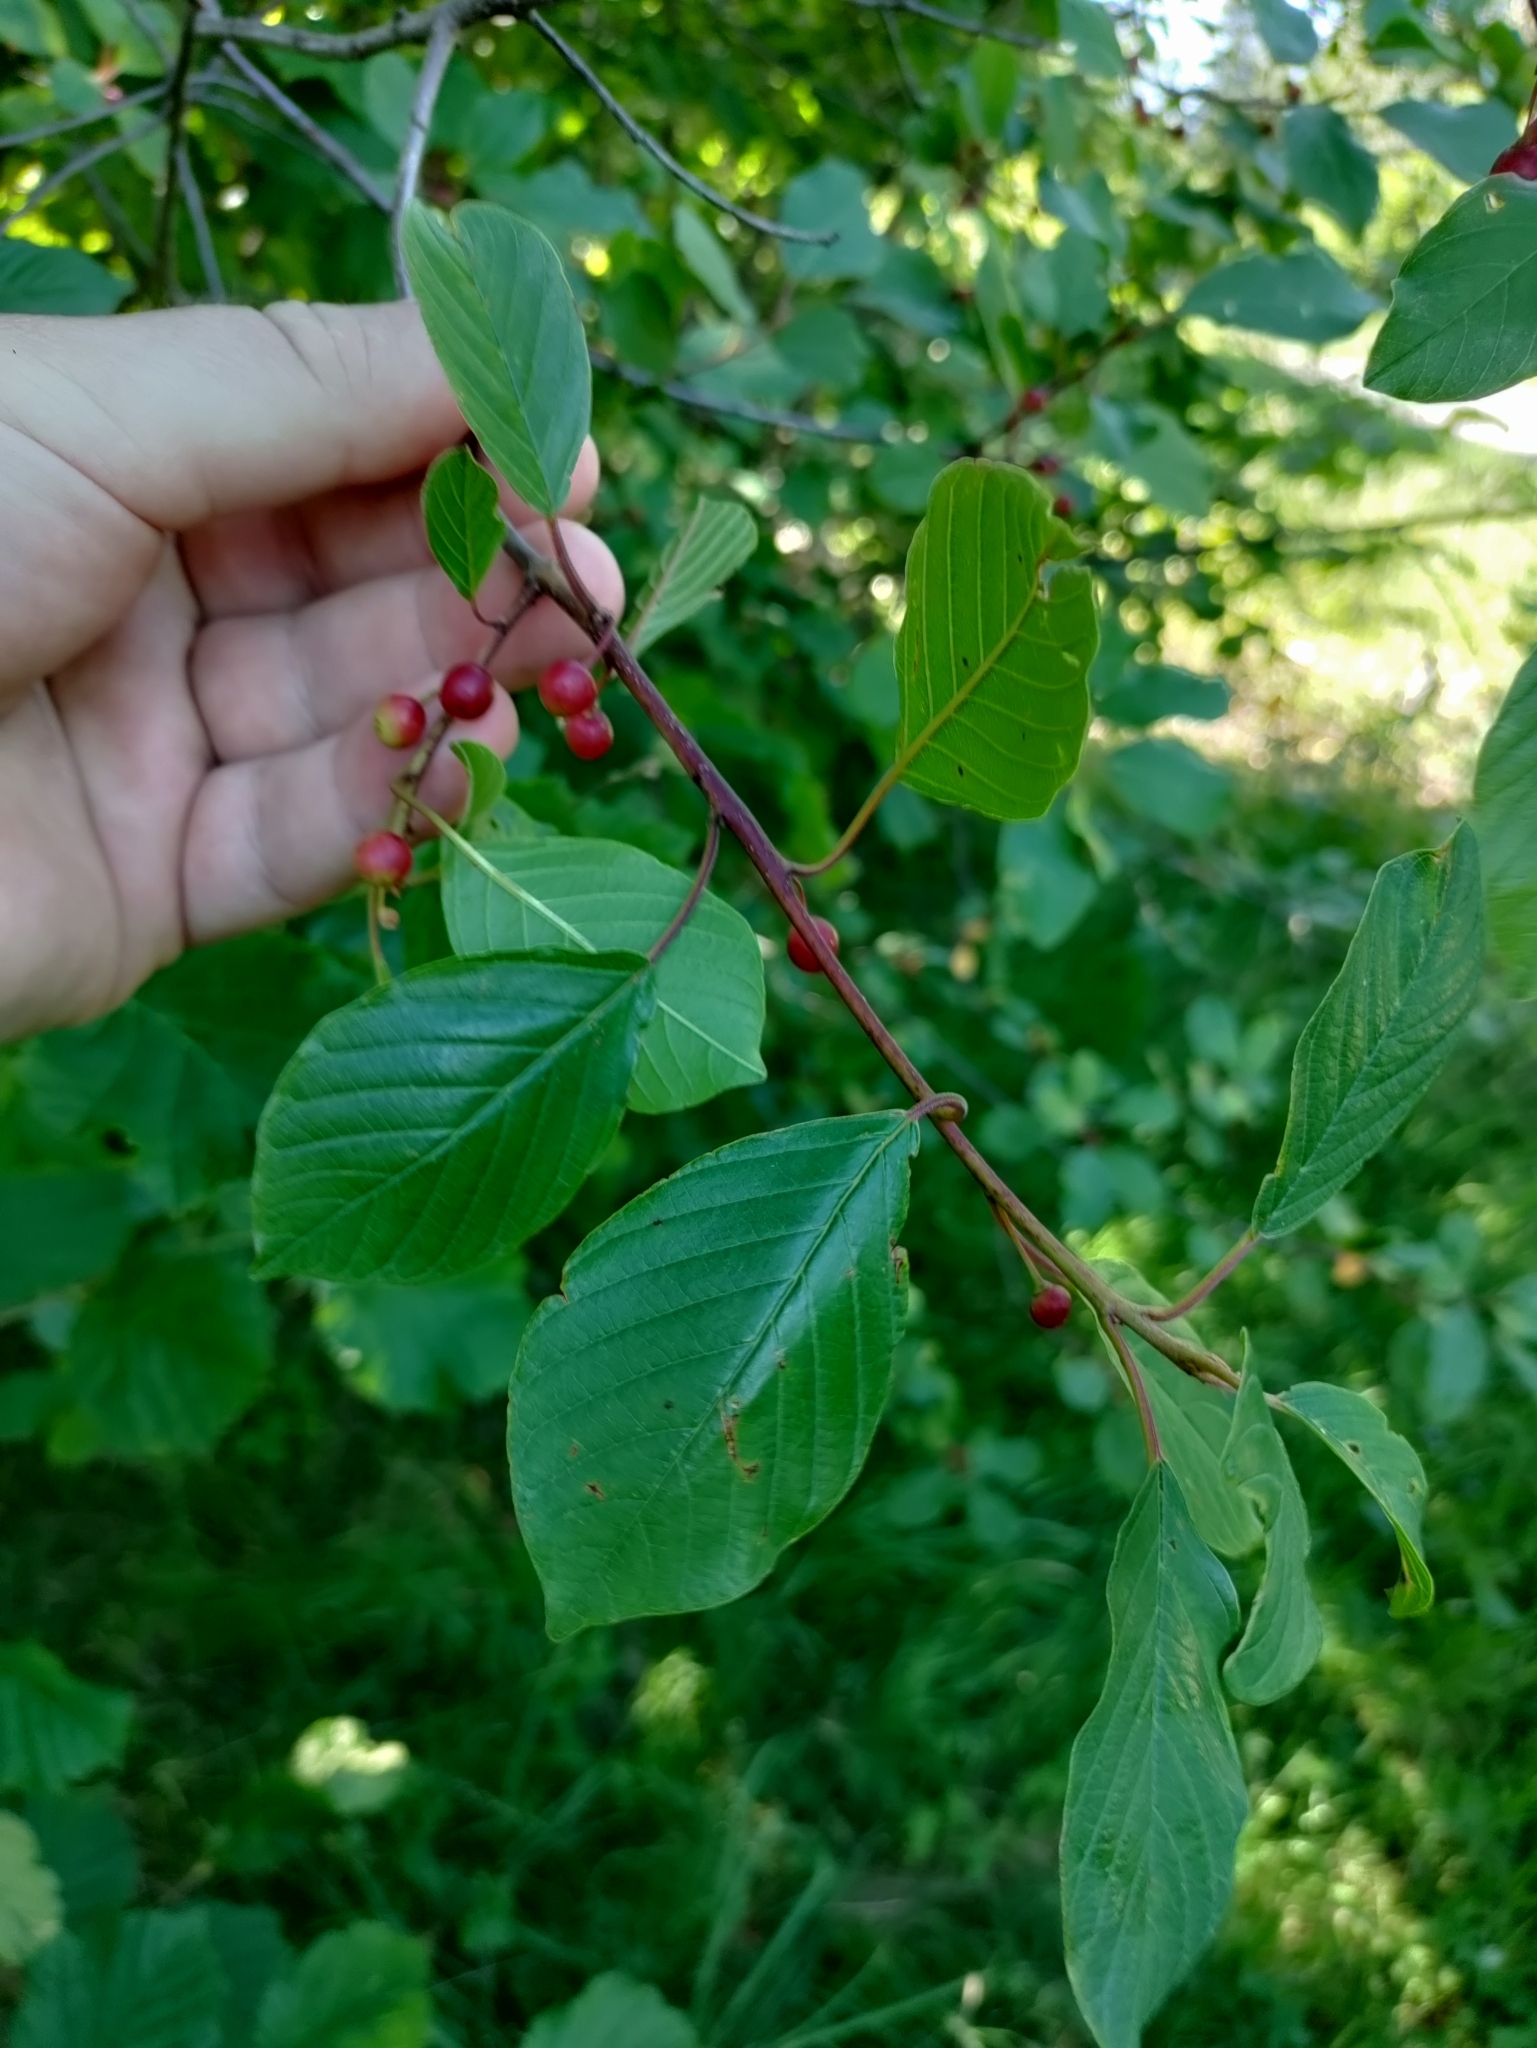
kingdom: Plantae
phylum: Tracheophyta
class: Magnoliopsida
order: Rosales
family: Rhamnaceae
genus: Frangula
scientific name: Frangula alnus
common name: Alder buckthorn
